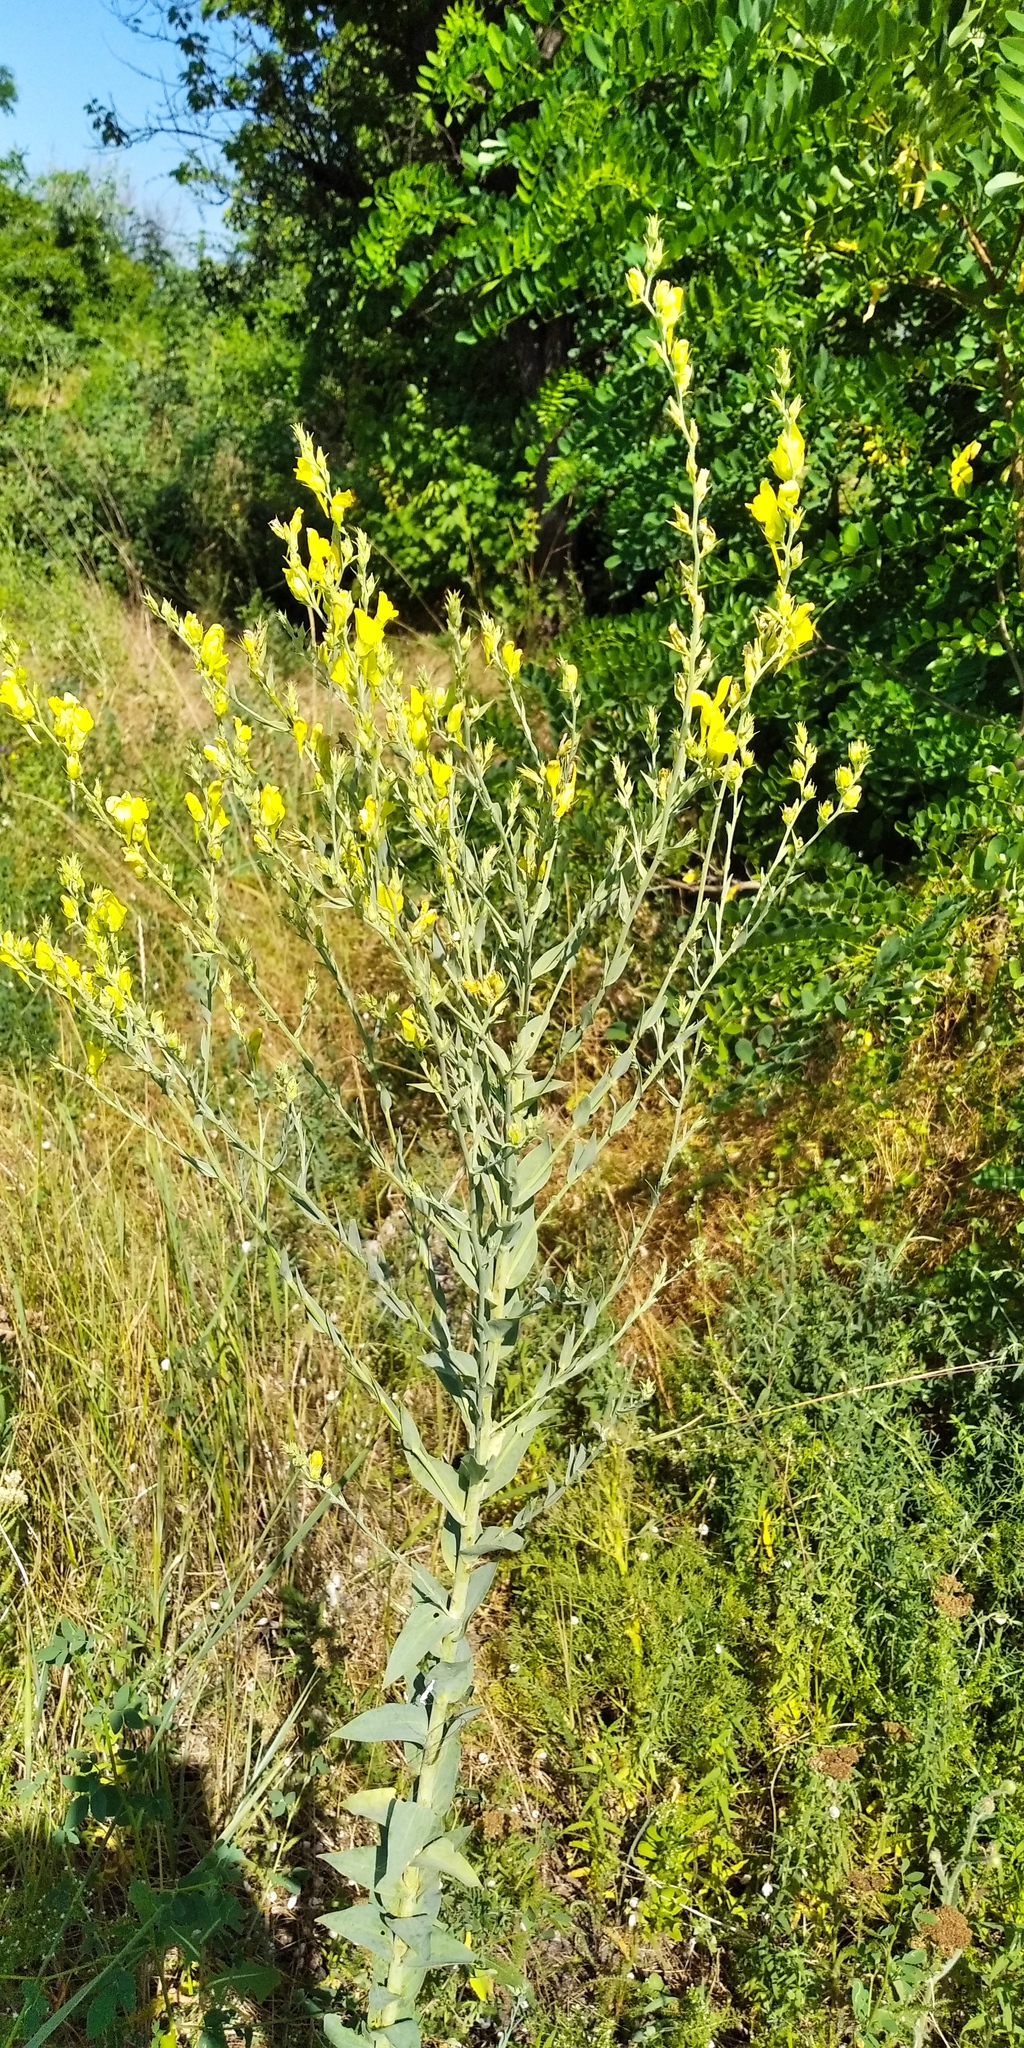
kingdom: Plantae
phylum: Tracheophyta
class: Magnoliopsida
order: Lamiales
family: Plantaginaceae
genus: Linaria
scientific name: Linaria genistifolia
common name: Broomleaf toadflax
